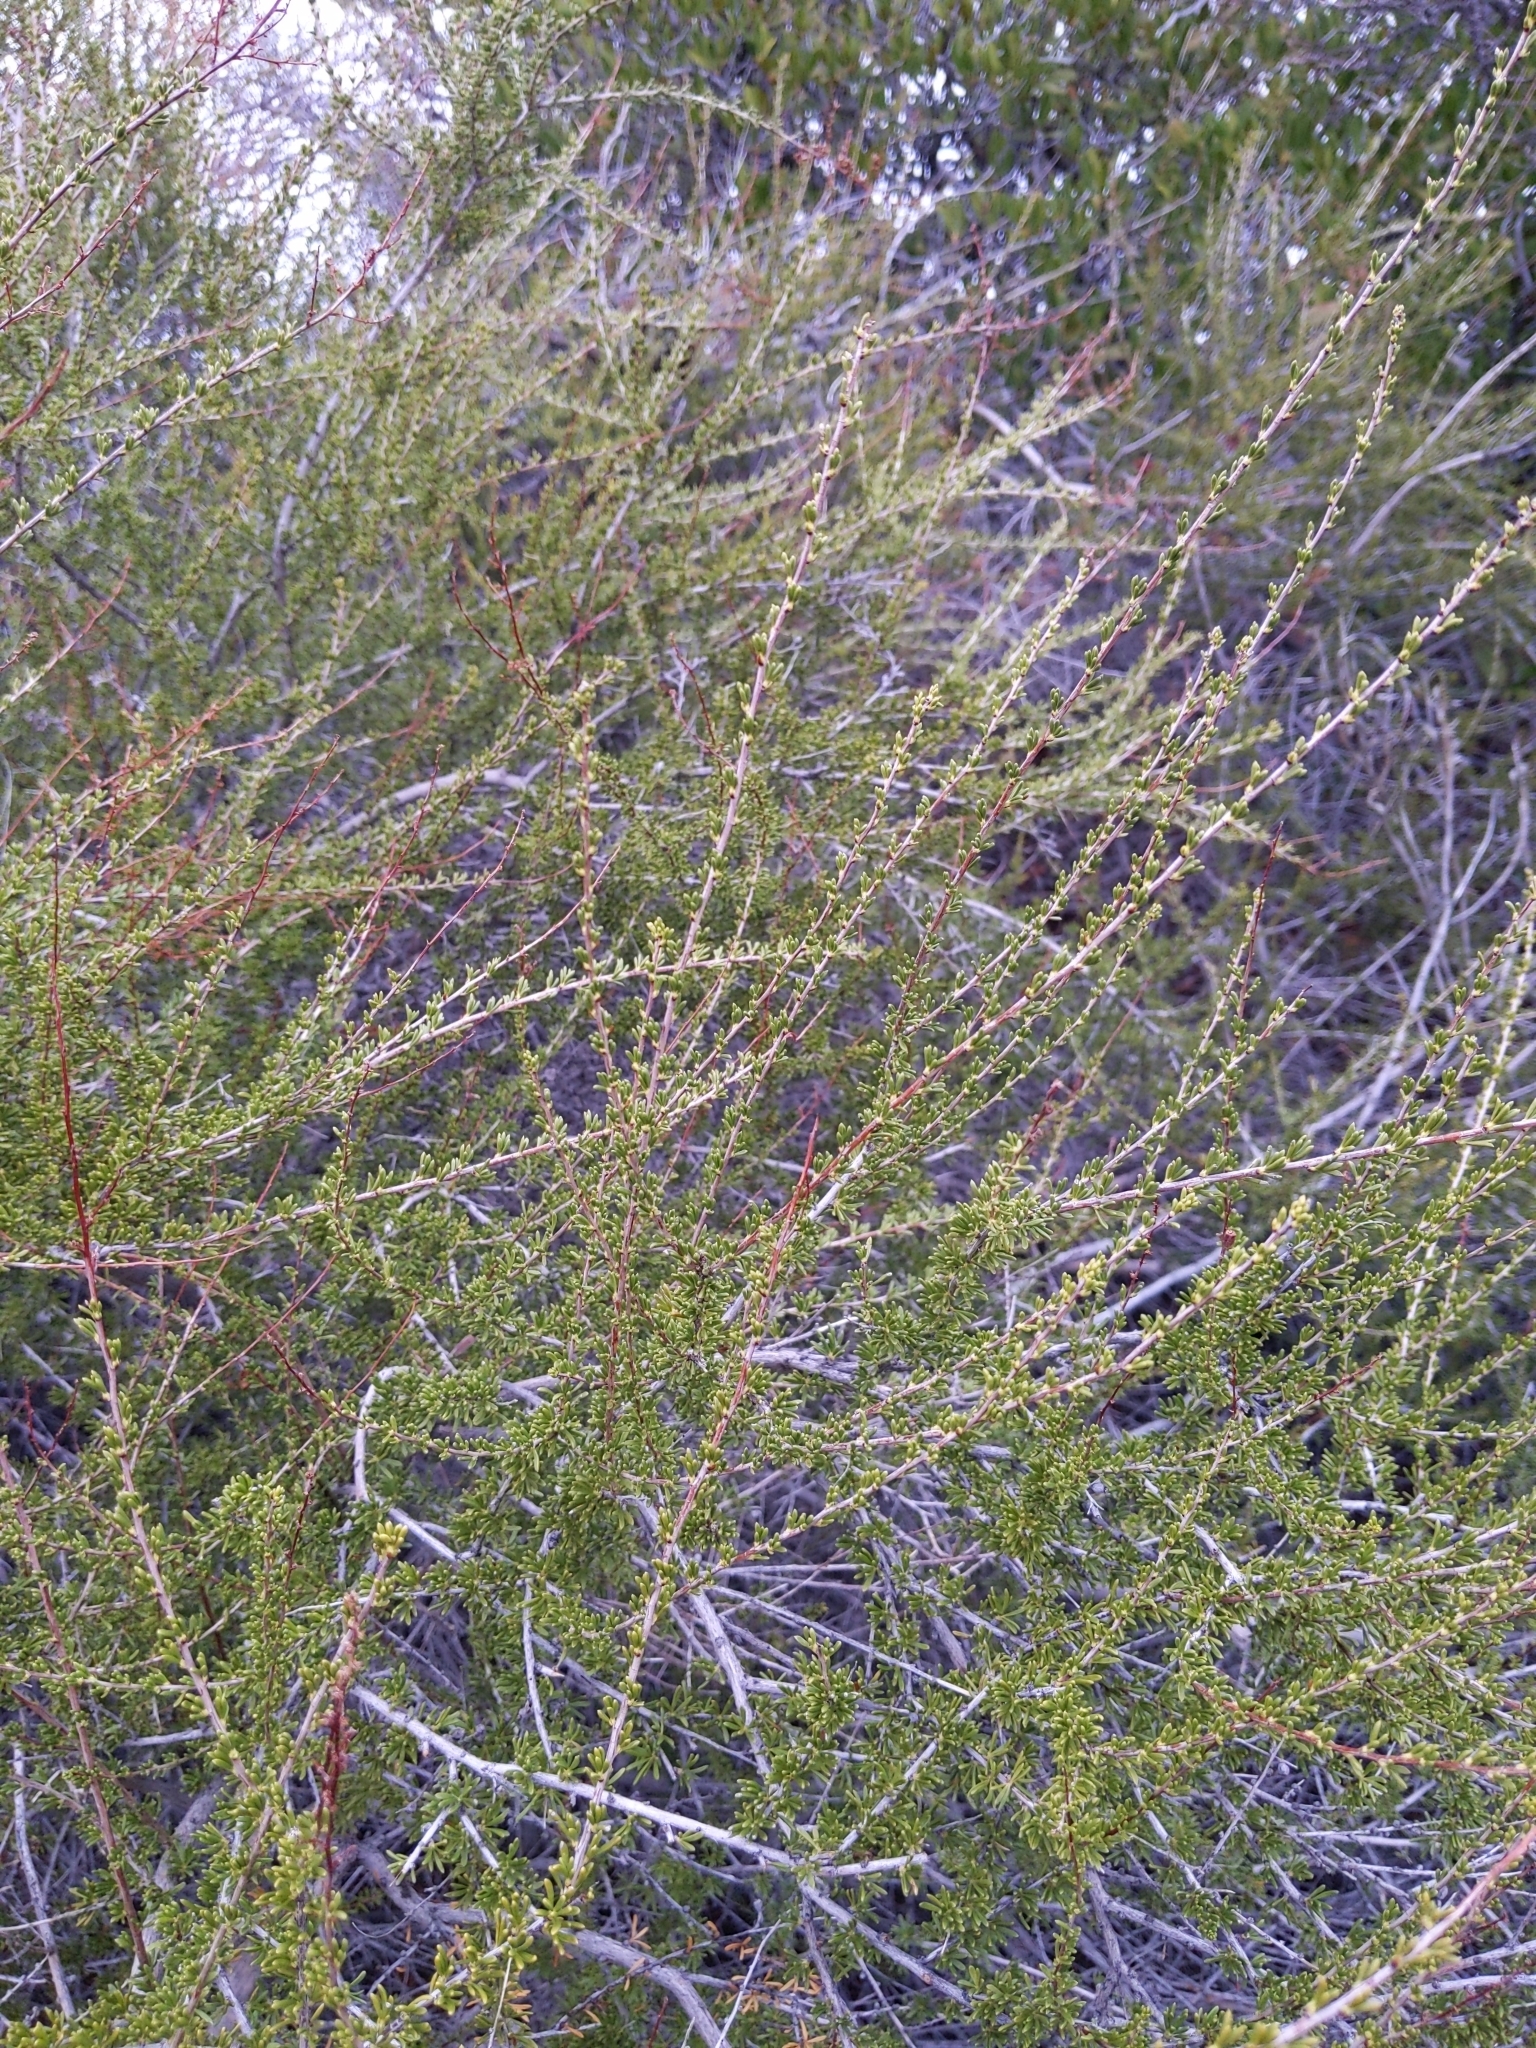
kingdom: Plantae
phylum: Tracheophyta
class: Magnoliopsida
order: Rosales
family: Rosaceae
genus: Adenostoma
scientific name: Adenostoma fasciculatum
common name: Chamise
